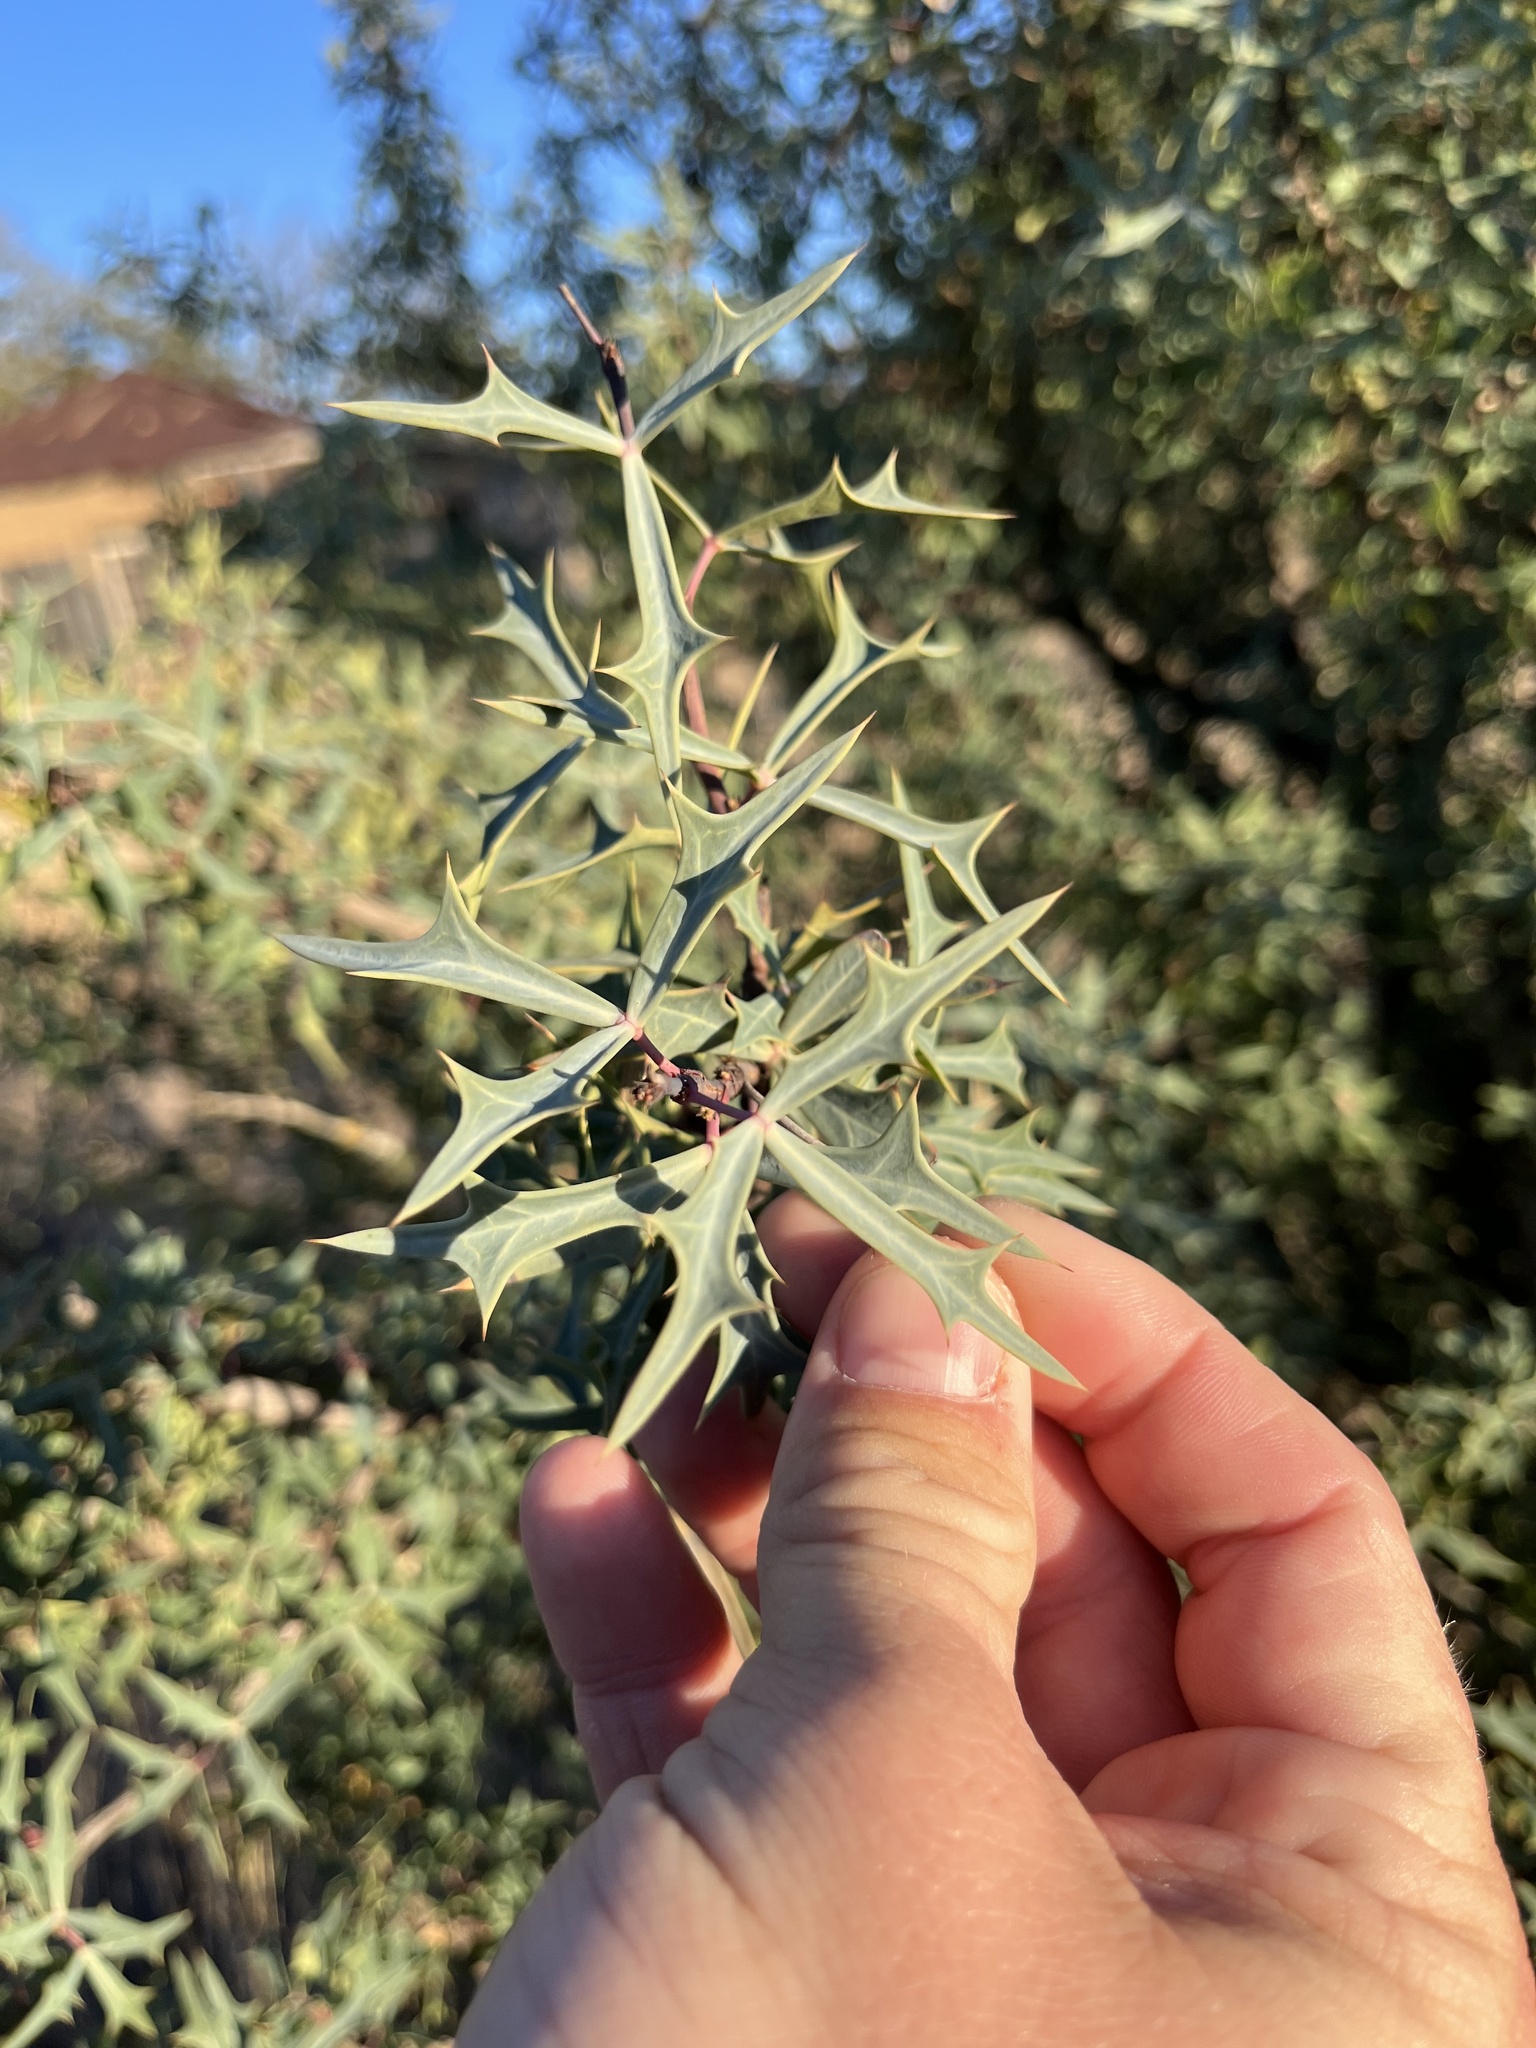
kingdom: Plantae
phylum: Tracheophyta
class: Magnoliopsida
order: Ranunculales
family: Berberidaceae
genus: Alloberberis
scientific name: Alloberberis trifoliolata
